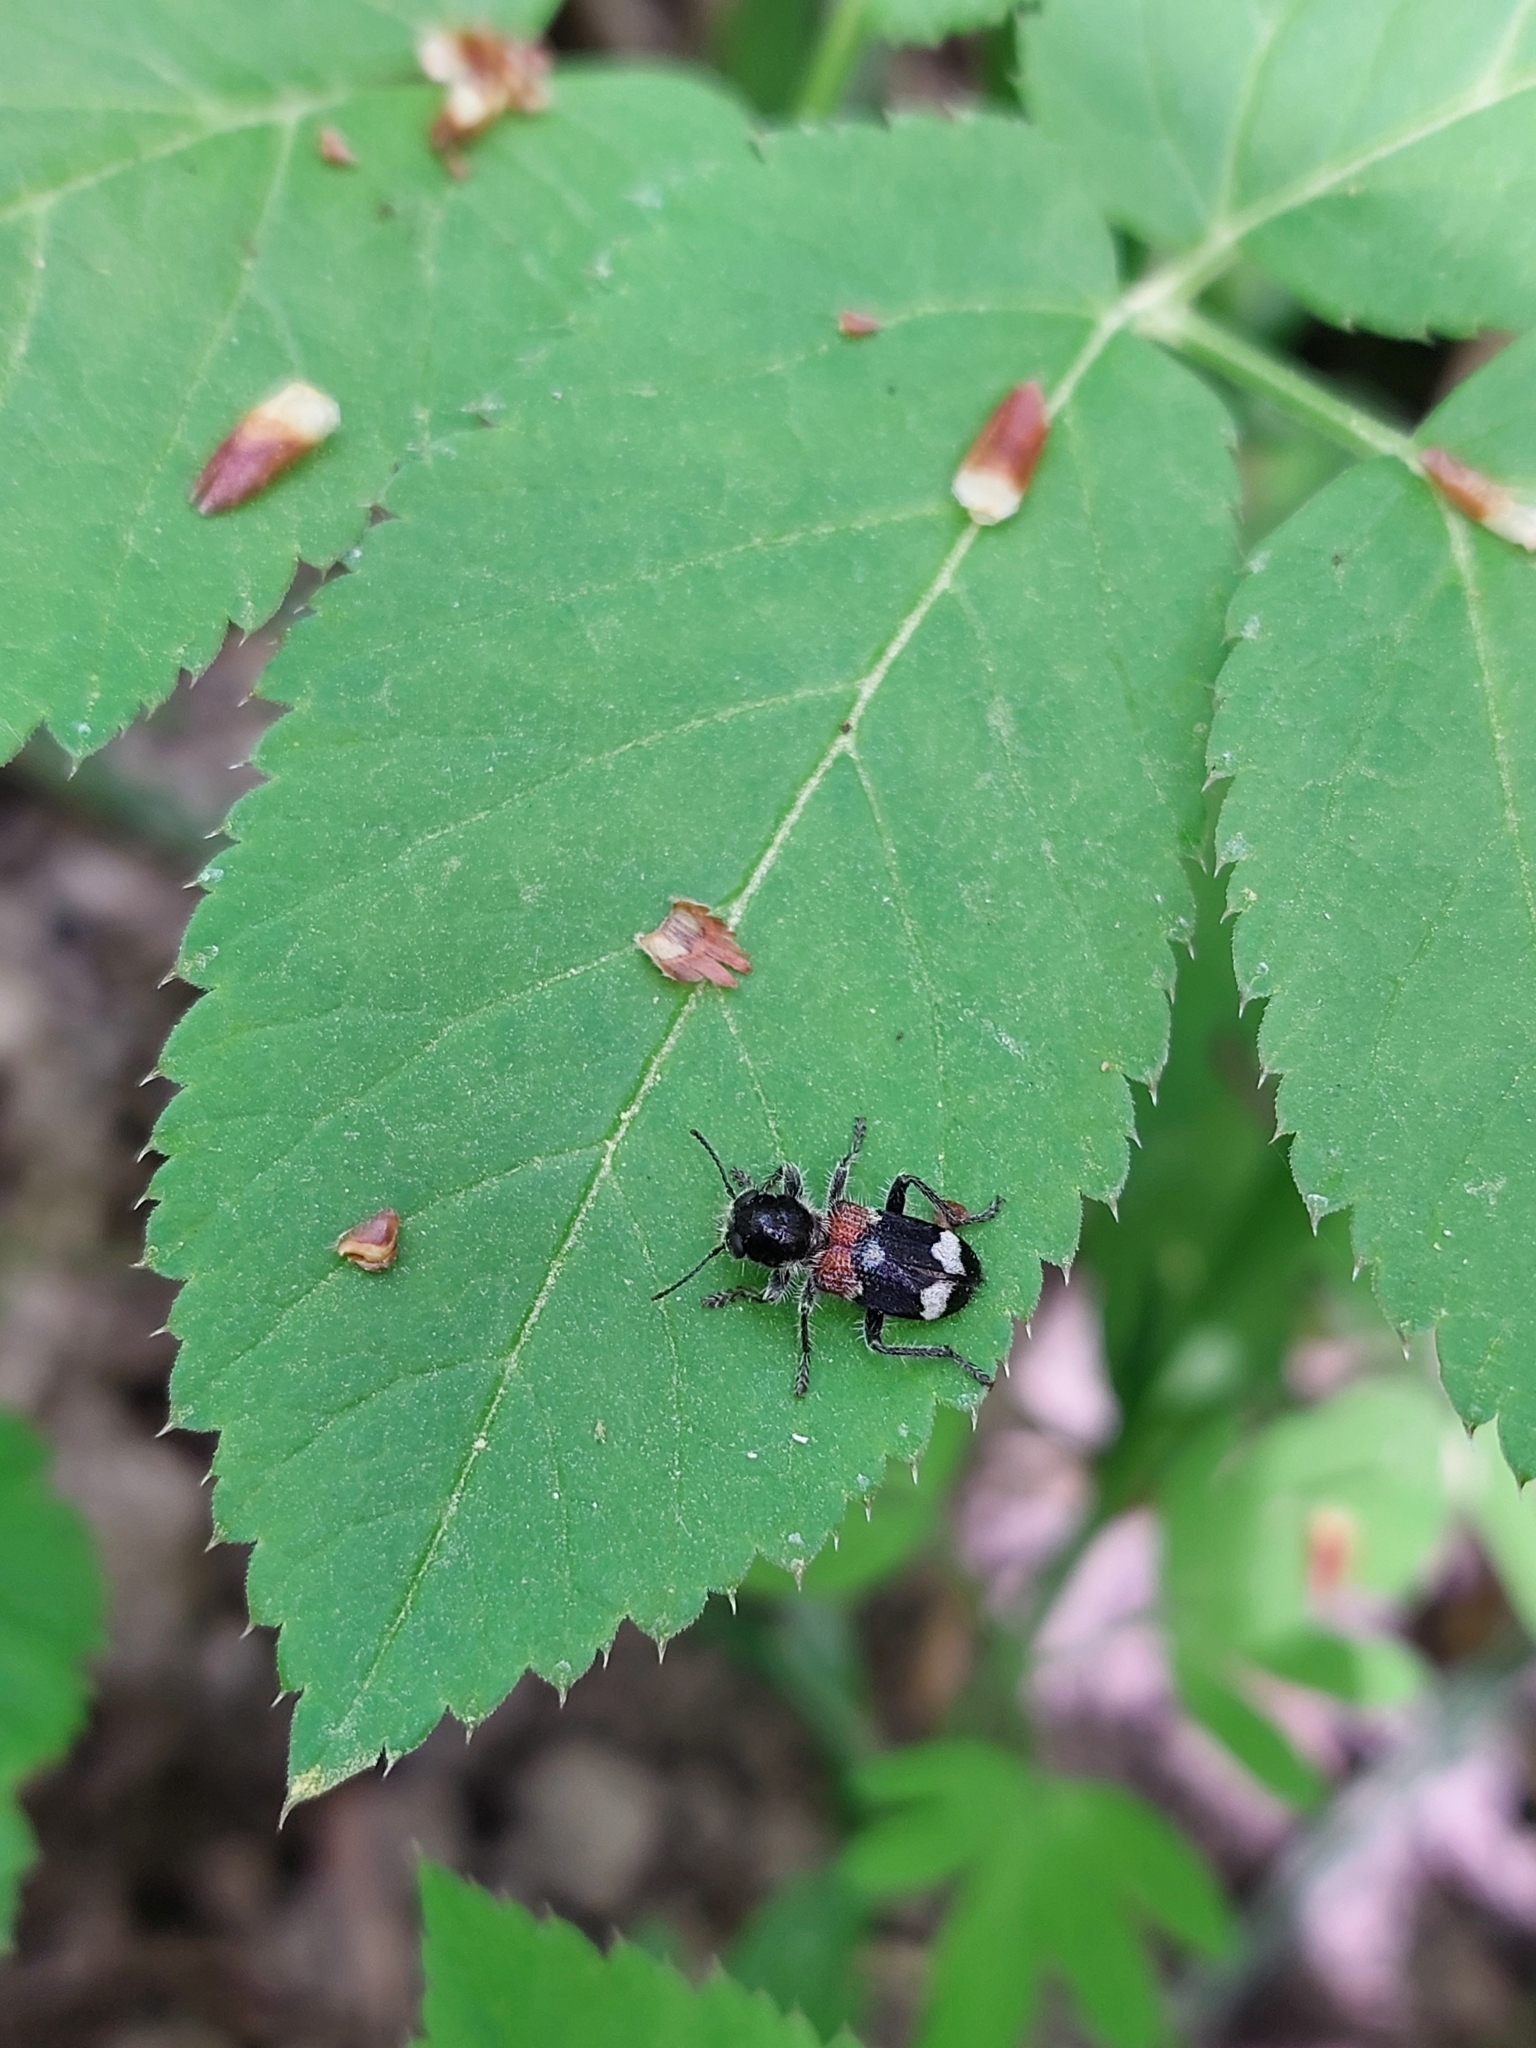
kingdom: Animalia
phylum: Arthropoda
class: Insecta
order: Coleoptera
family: Cleridae
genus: Clerus
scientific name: Clerus mutillarius
